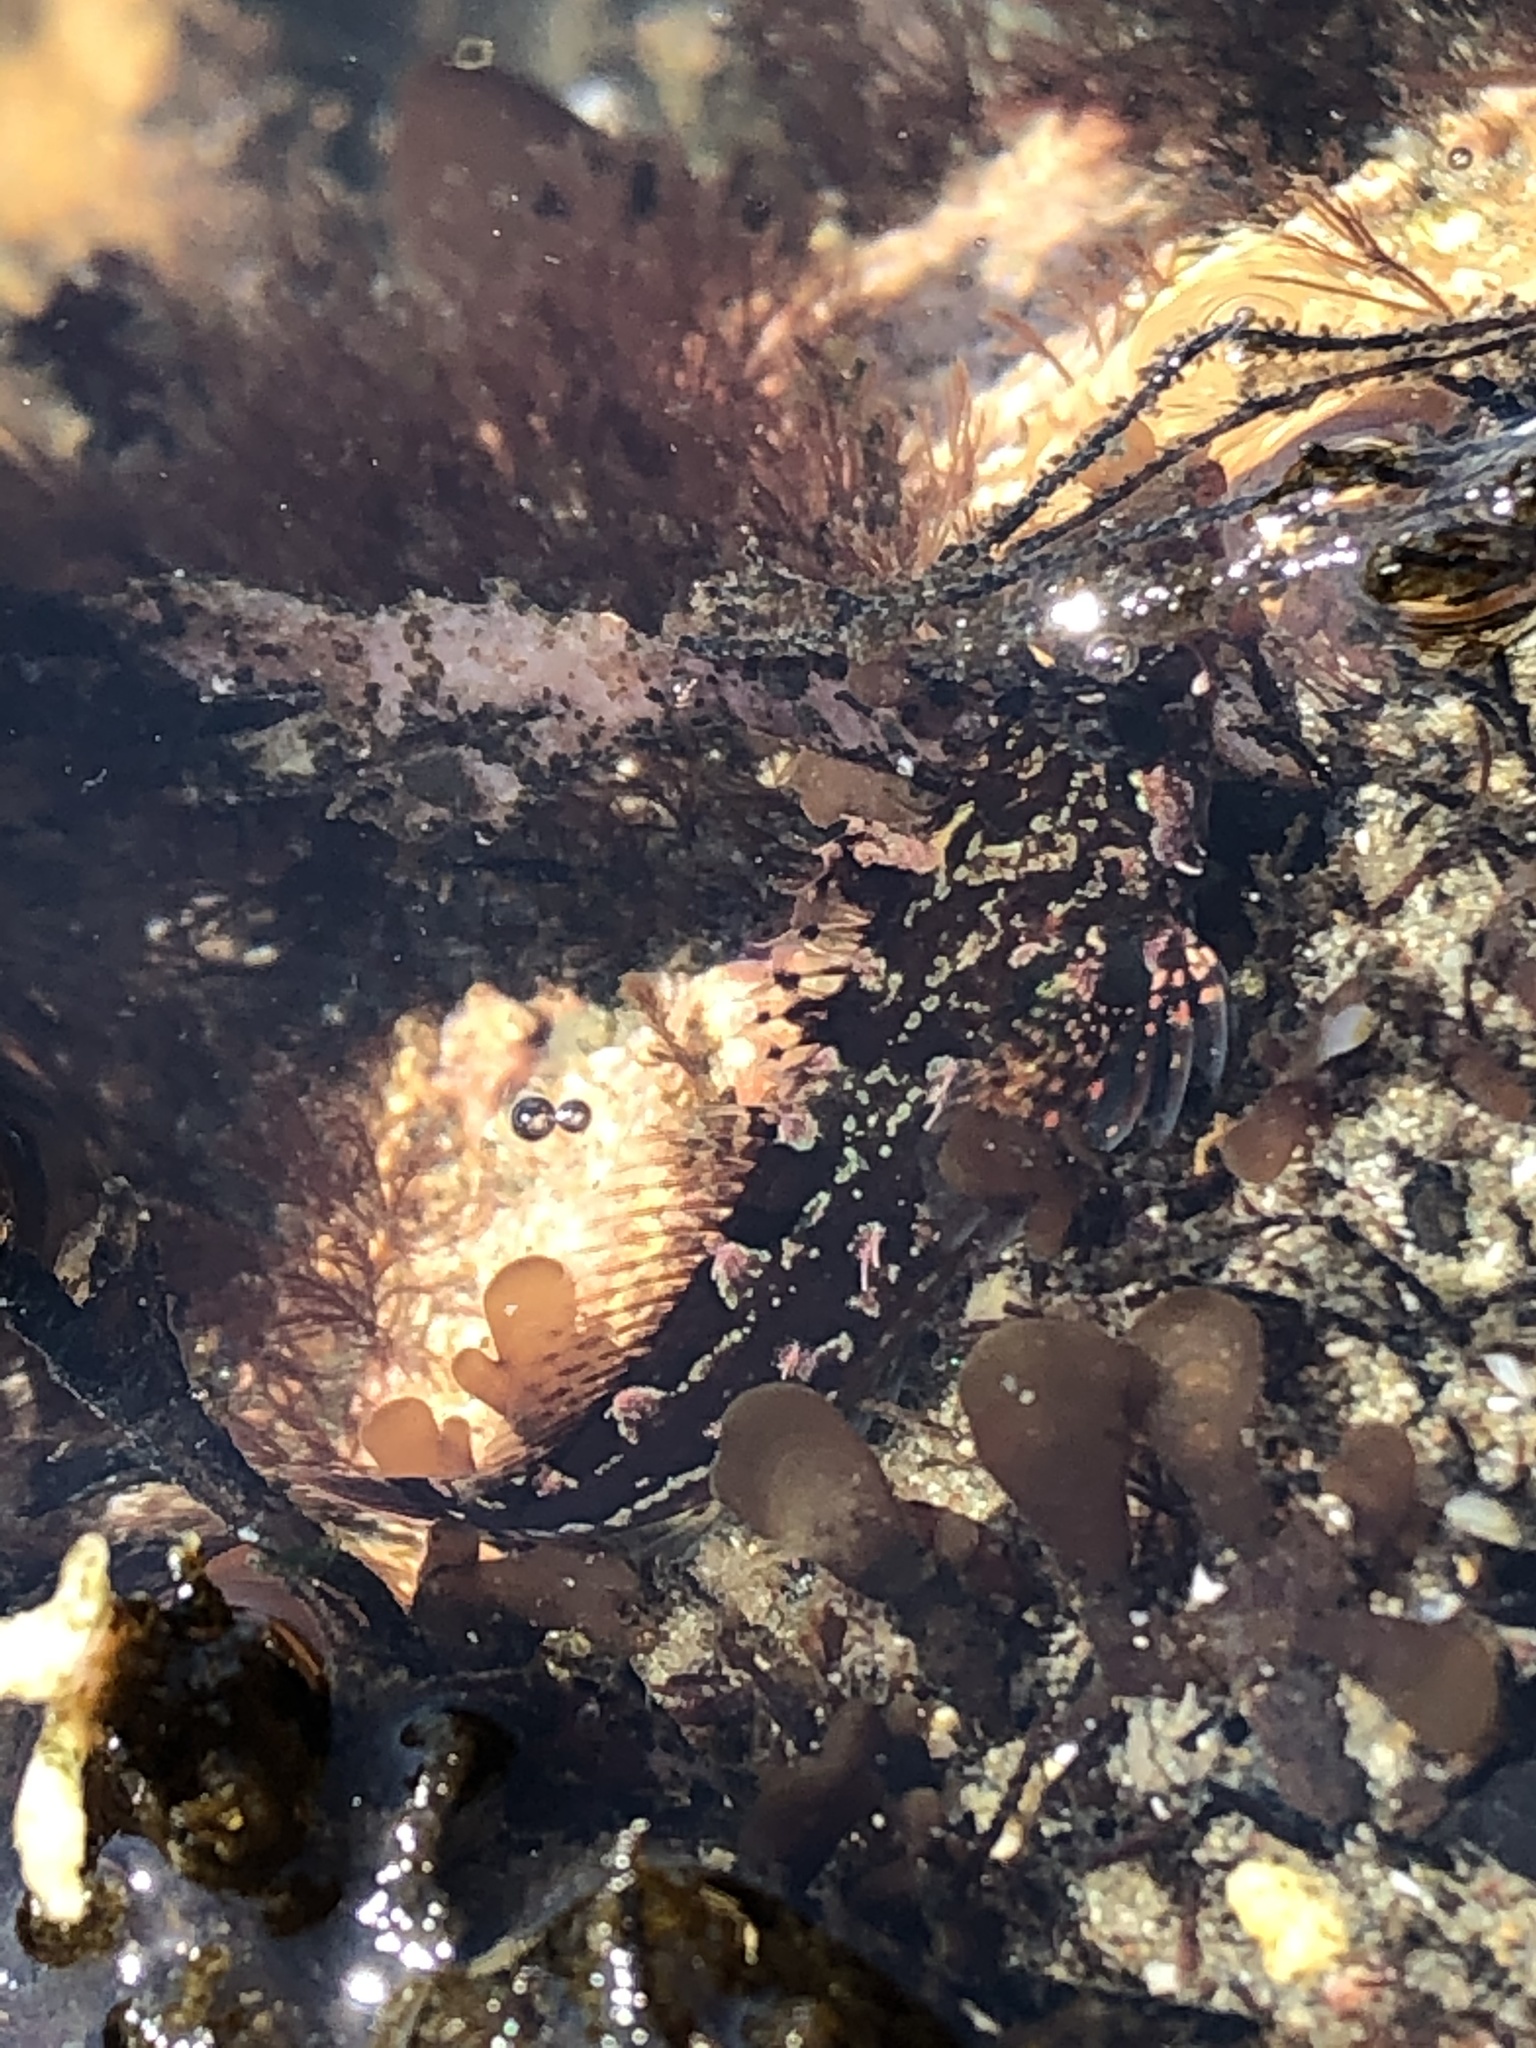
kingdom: Animalia
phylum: Chordata
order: Scorpaeniformes
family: Cottidae
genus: Oligocottus
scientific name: Oligocottus snyderi
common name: Fluffy sculpin
